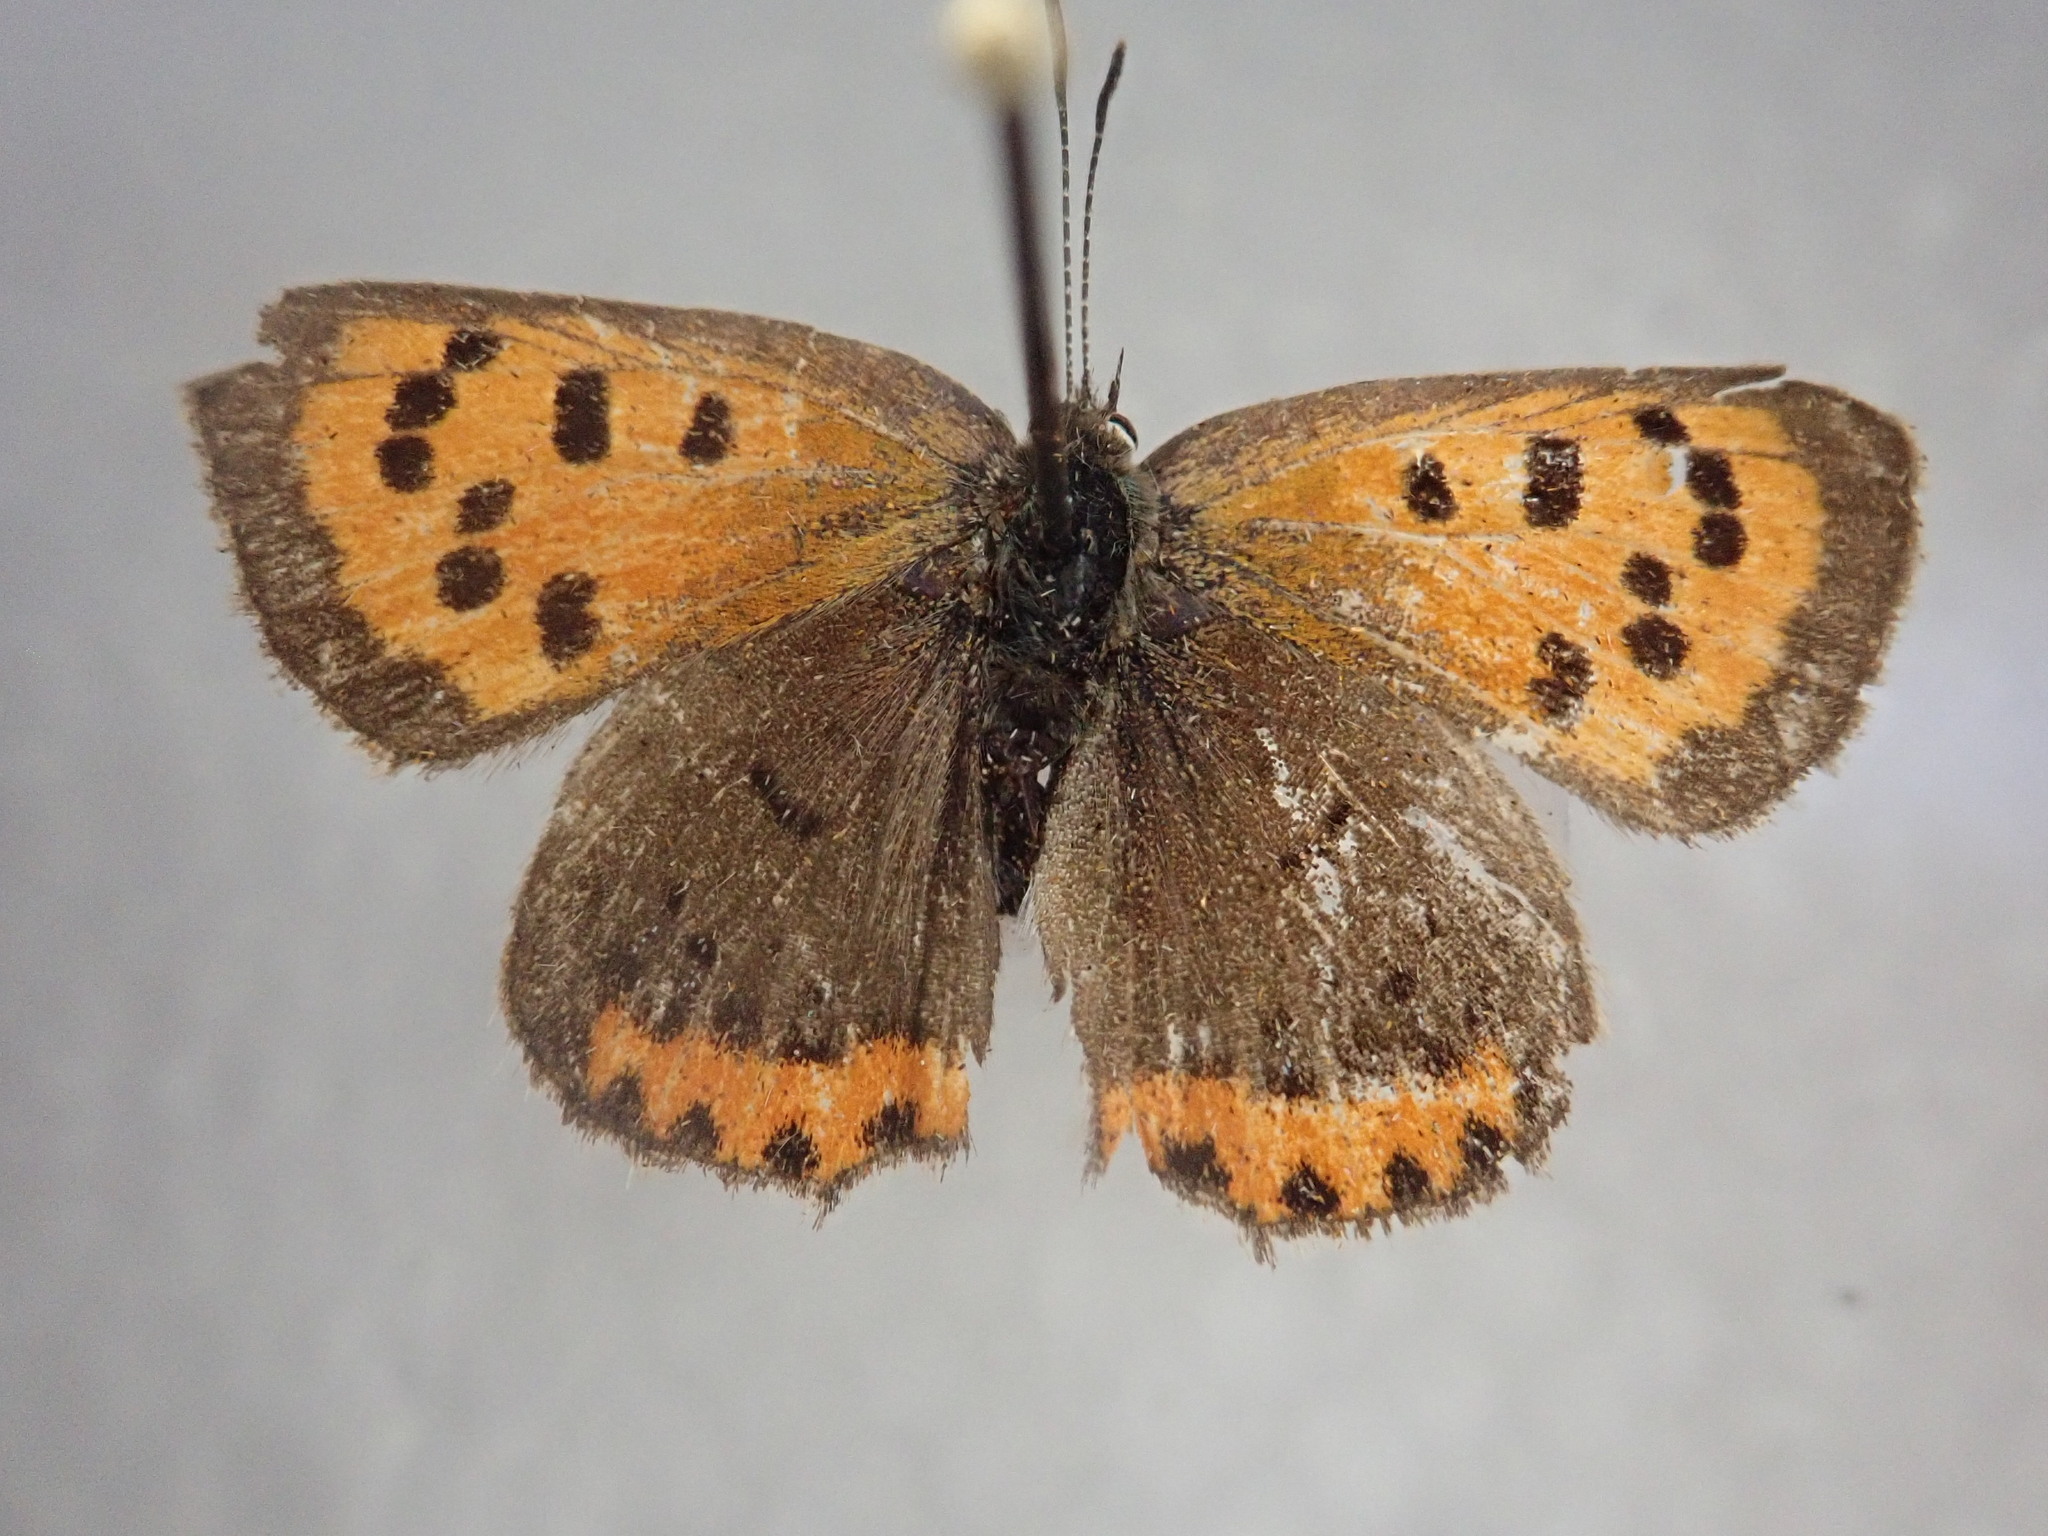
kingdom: Animalia
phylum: Arthropoda
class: Insecta
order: Lepidoptera
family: Lycaenidae
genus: Lycaena
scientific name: Lycaena hypophlaeas
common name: American copper
